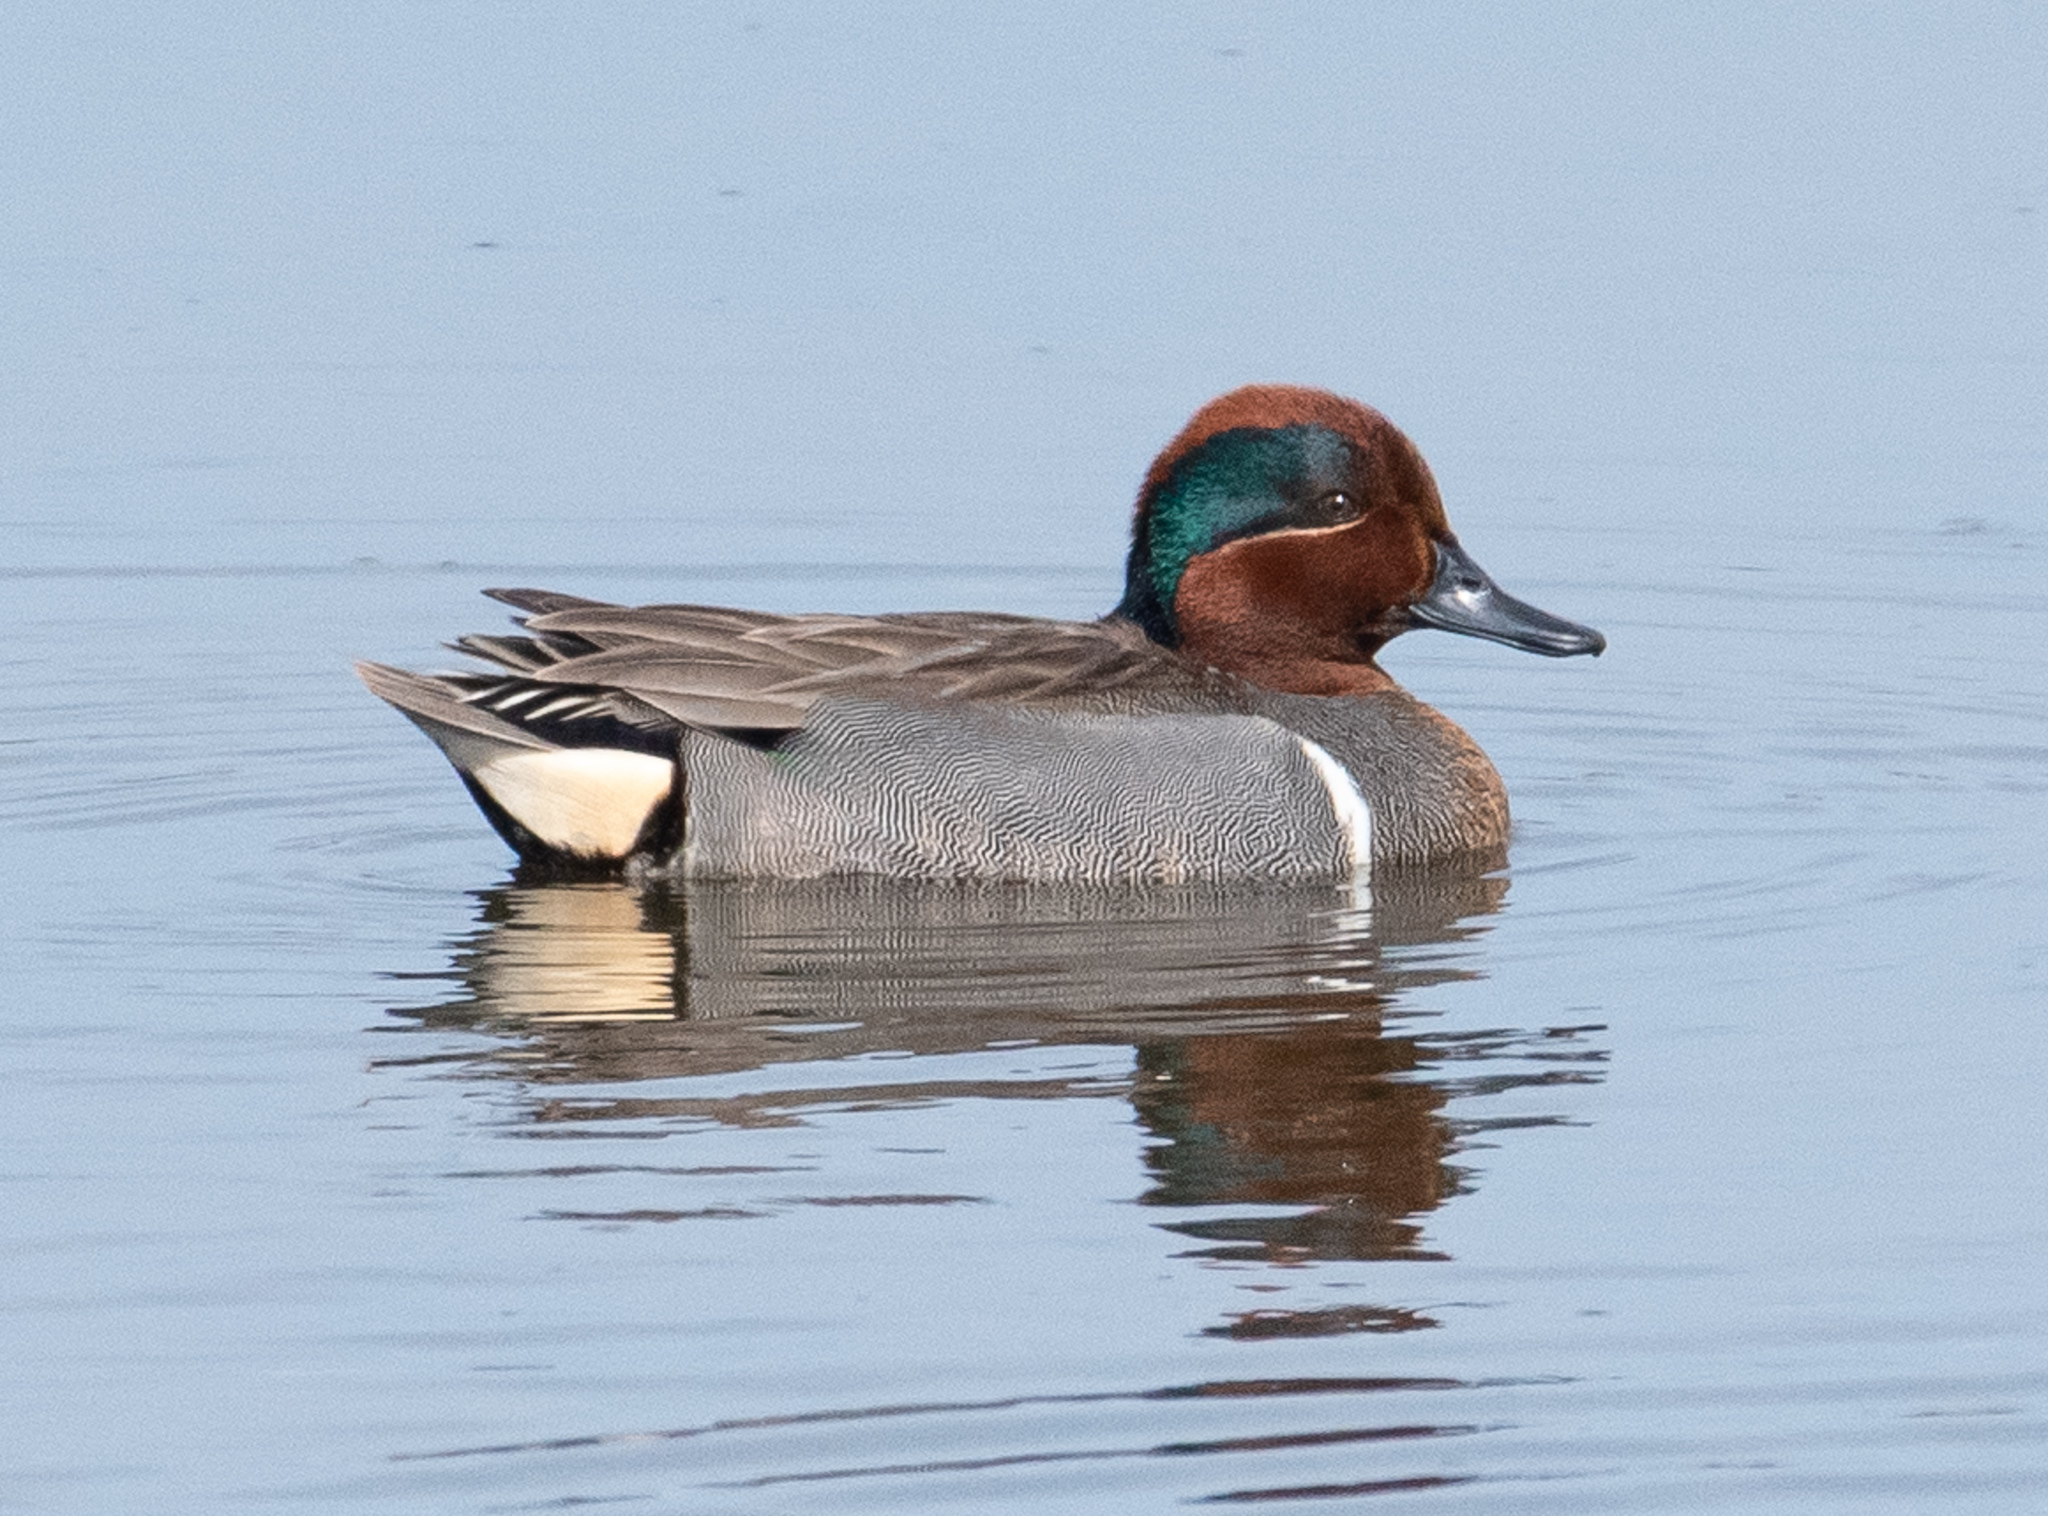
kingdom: Animalia
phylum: Chordata
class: Aves
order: Anseriformes
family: Anatidae
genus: Anas
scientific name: Anas crecca
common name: Eurasian teal
